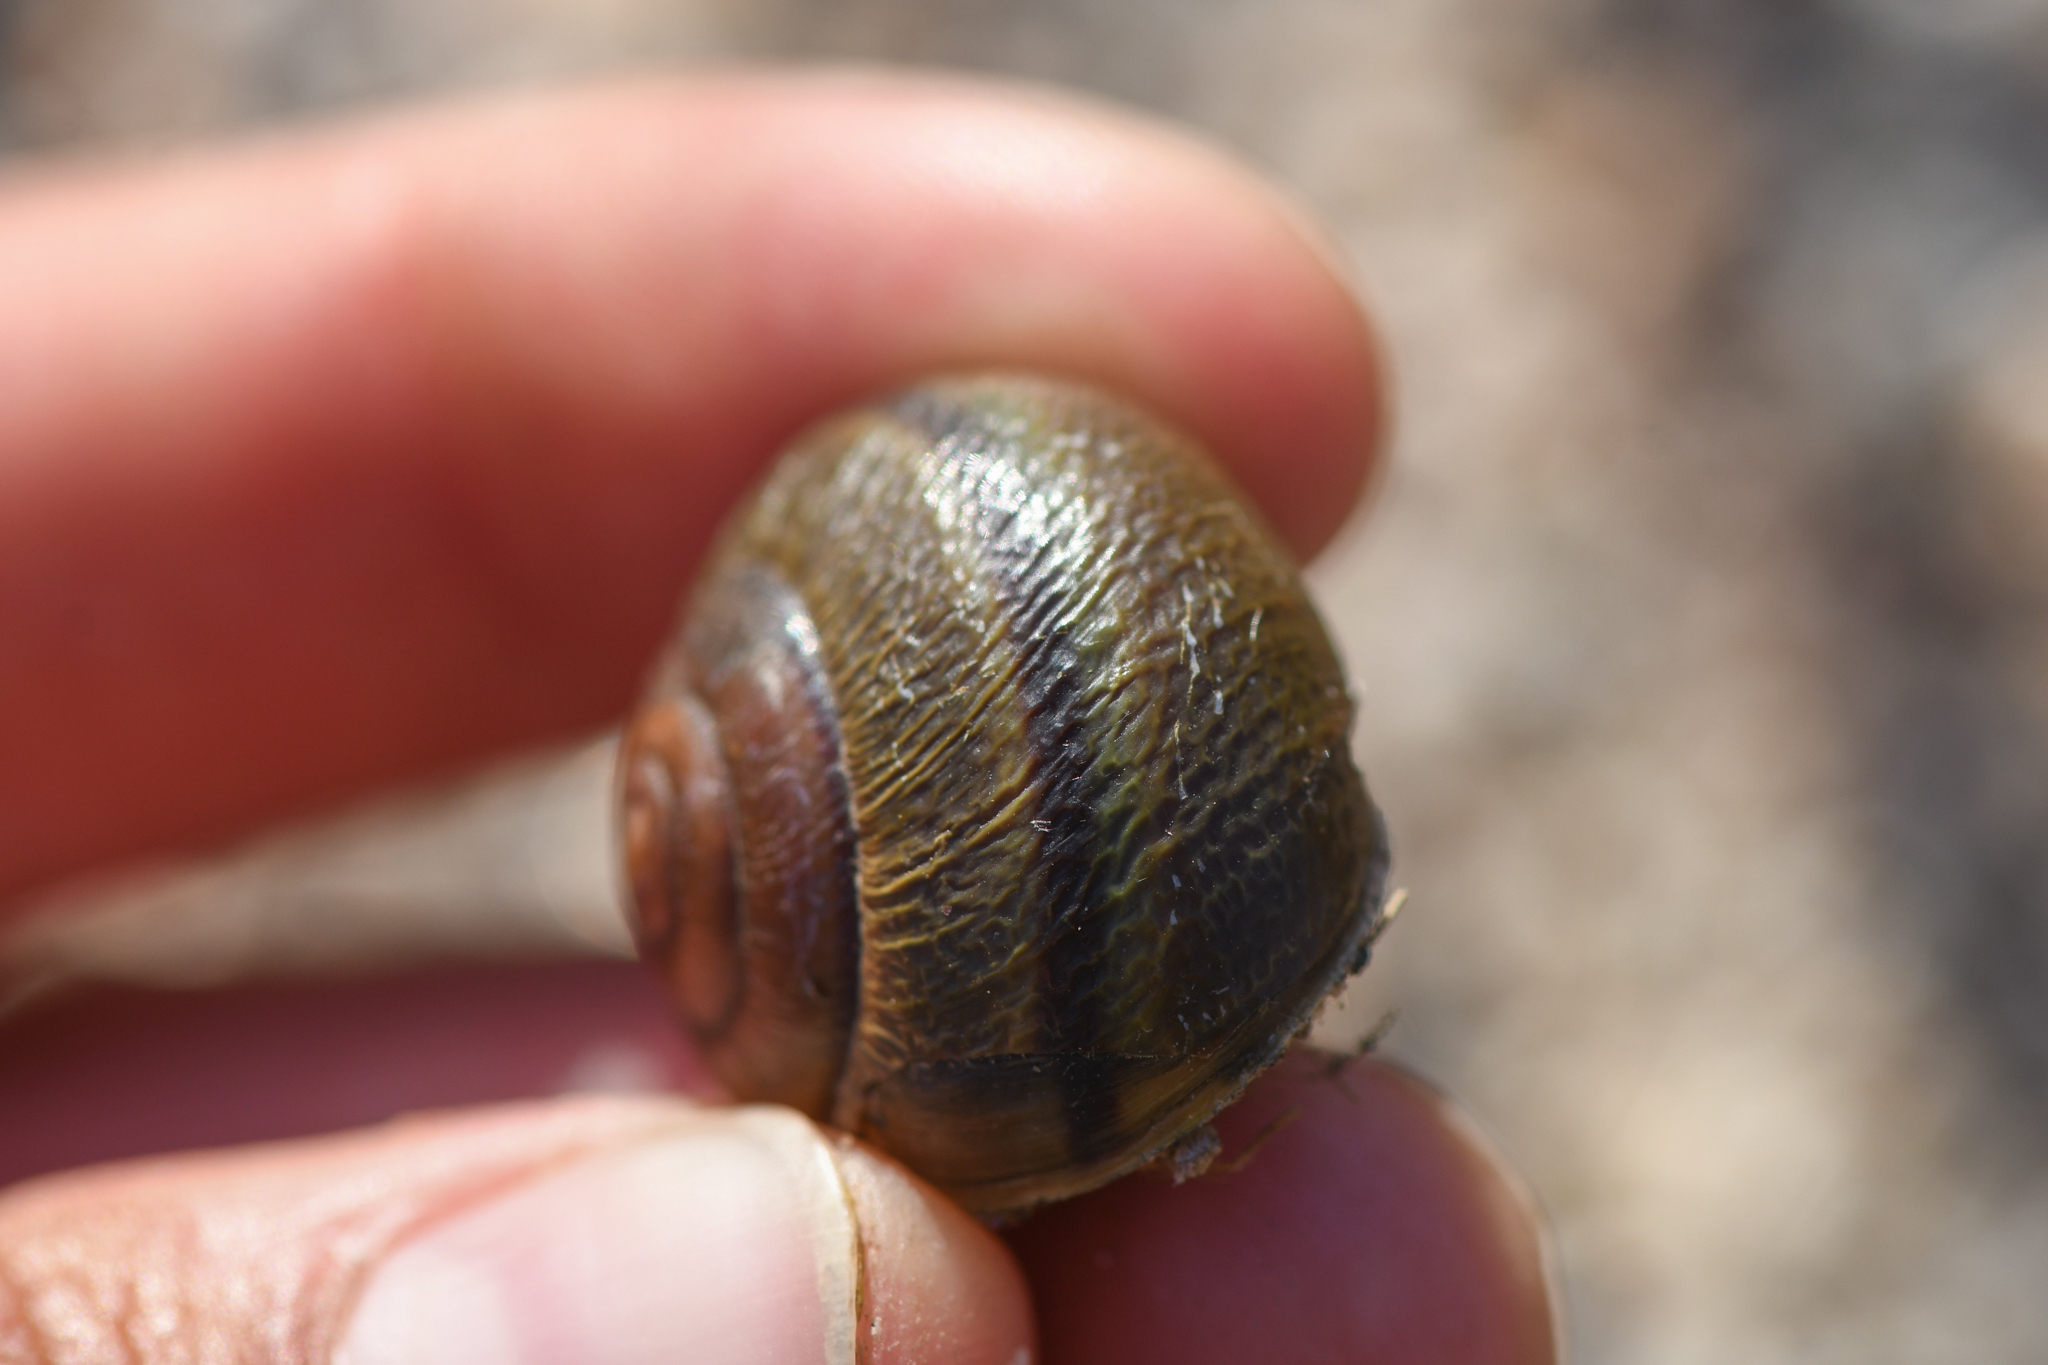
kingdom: Animalia
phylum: Mollusca
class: Gastropoda
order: Stylommatophora
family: Xanthonychidae
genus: Helminthoglypta
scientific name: Helminthoglypta tudiculata
